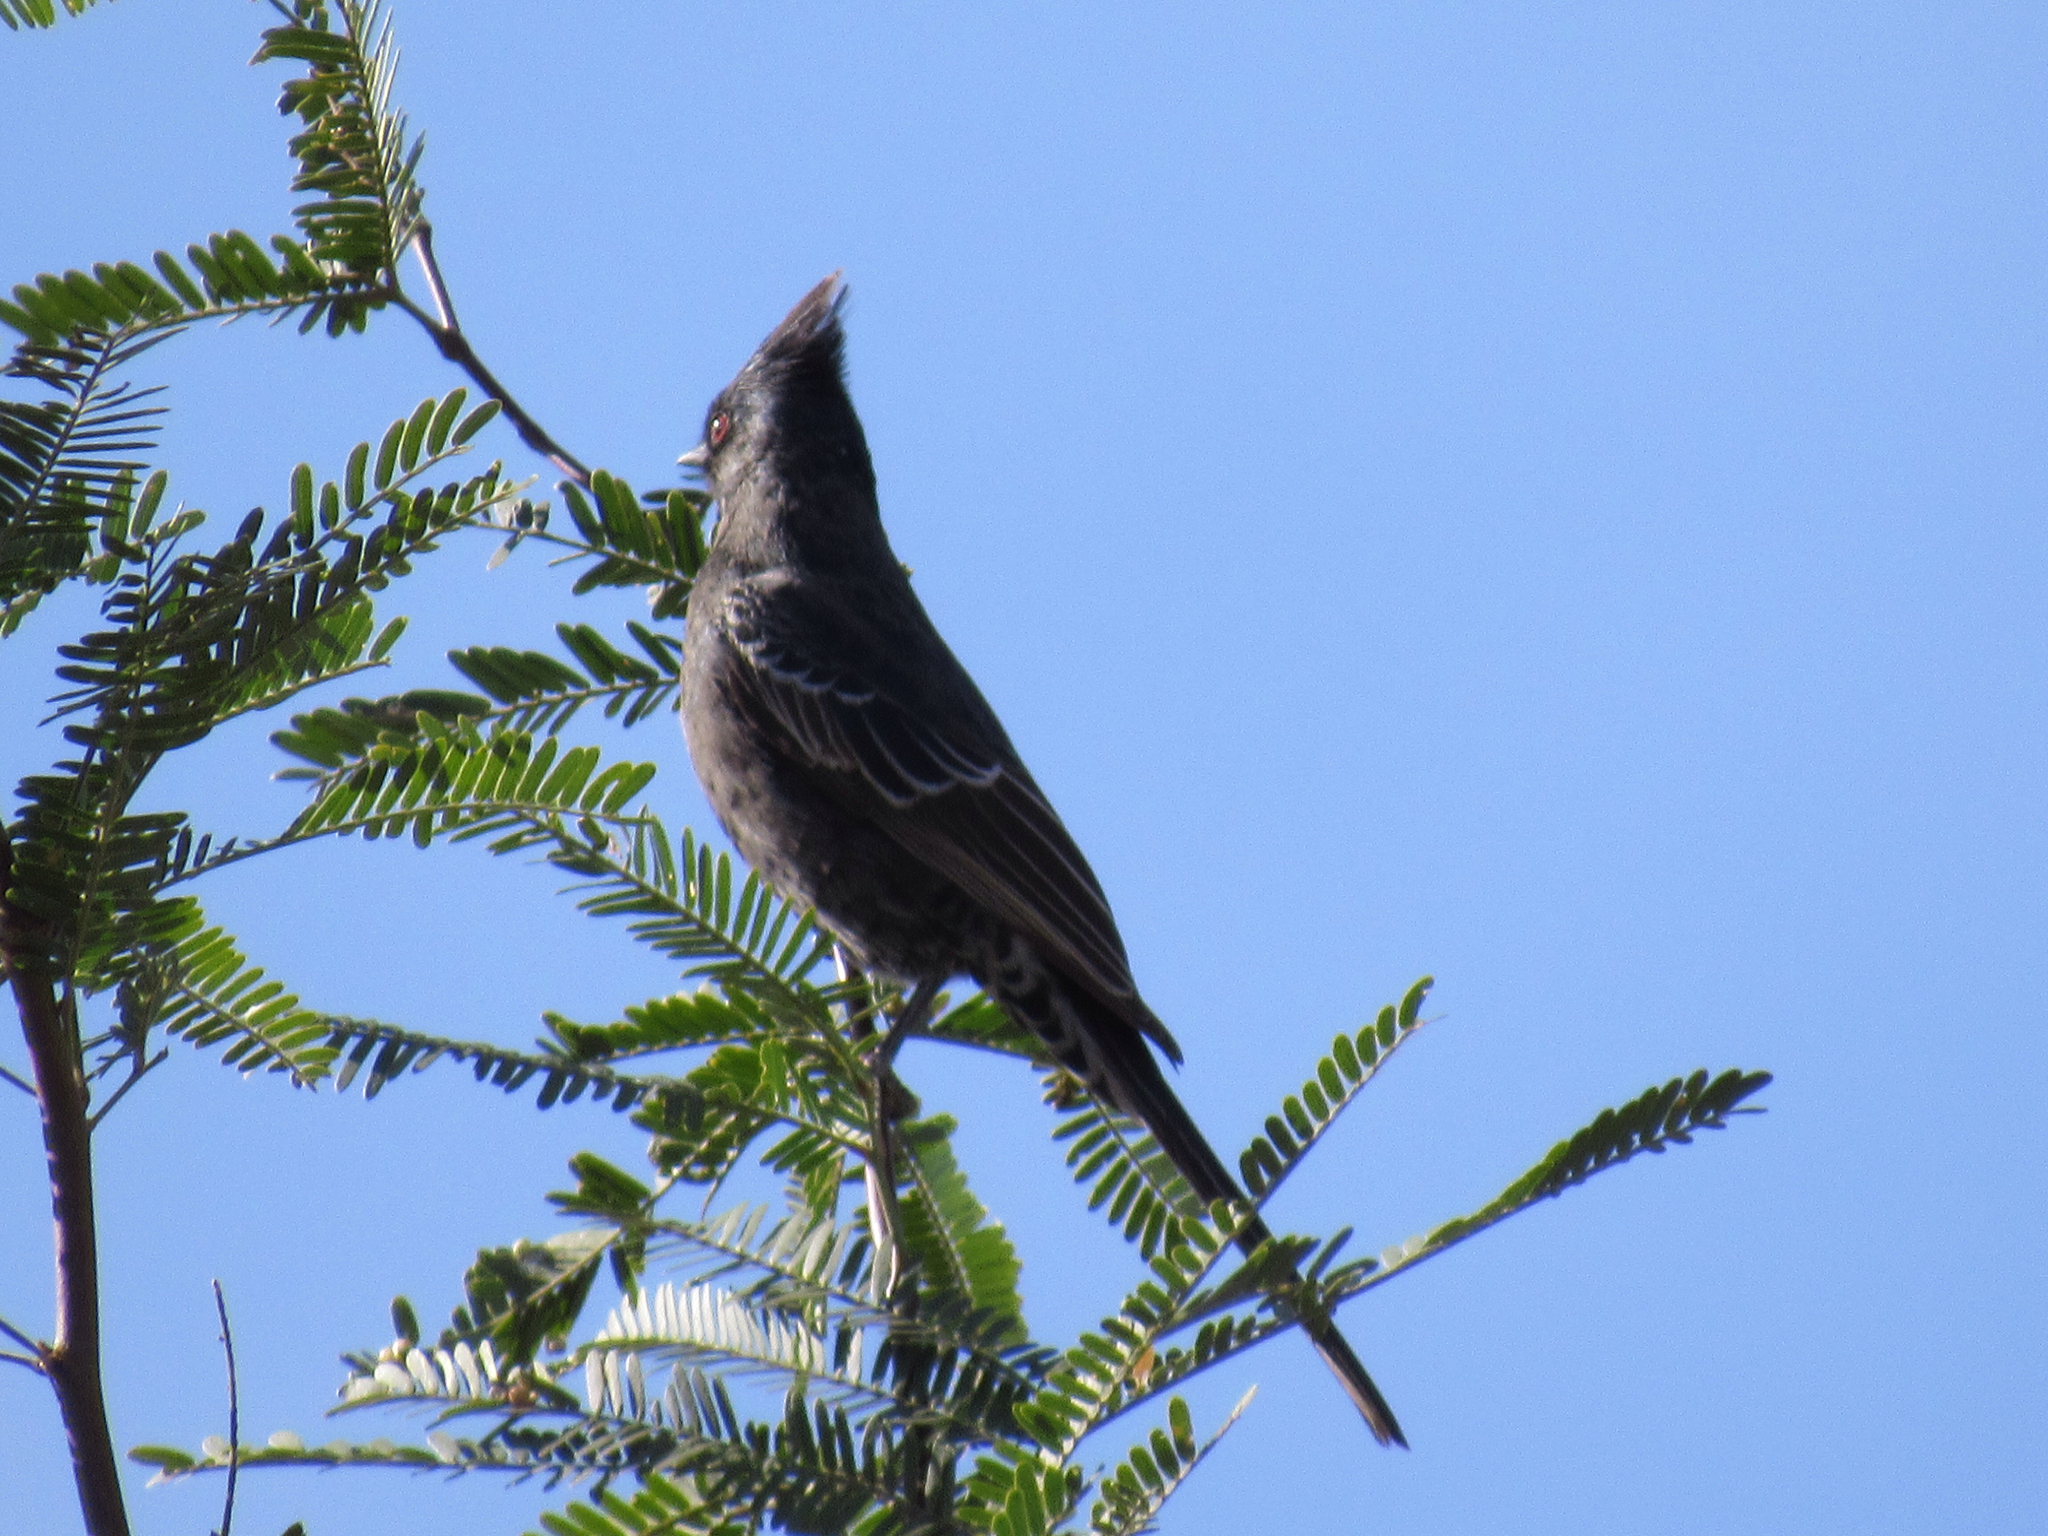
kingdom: Animalia
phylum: Chordata
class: Aves
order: Passeriformes
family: Ptilogonatidae
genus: Phainopepla
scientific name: Phainopepla nitens
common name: Phainopepla
